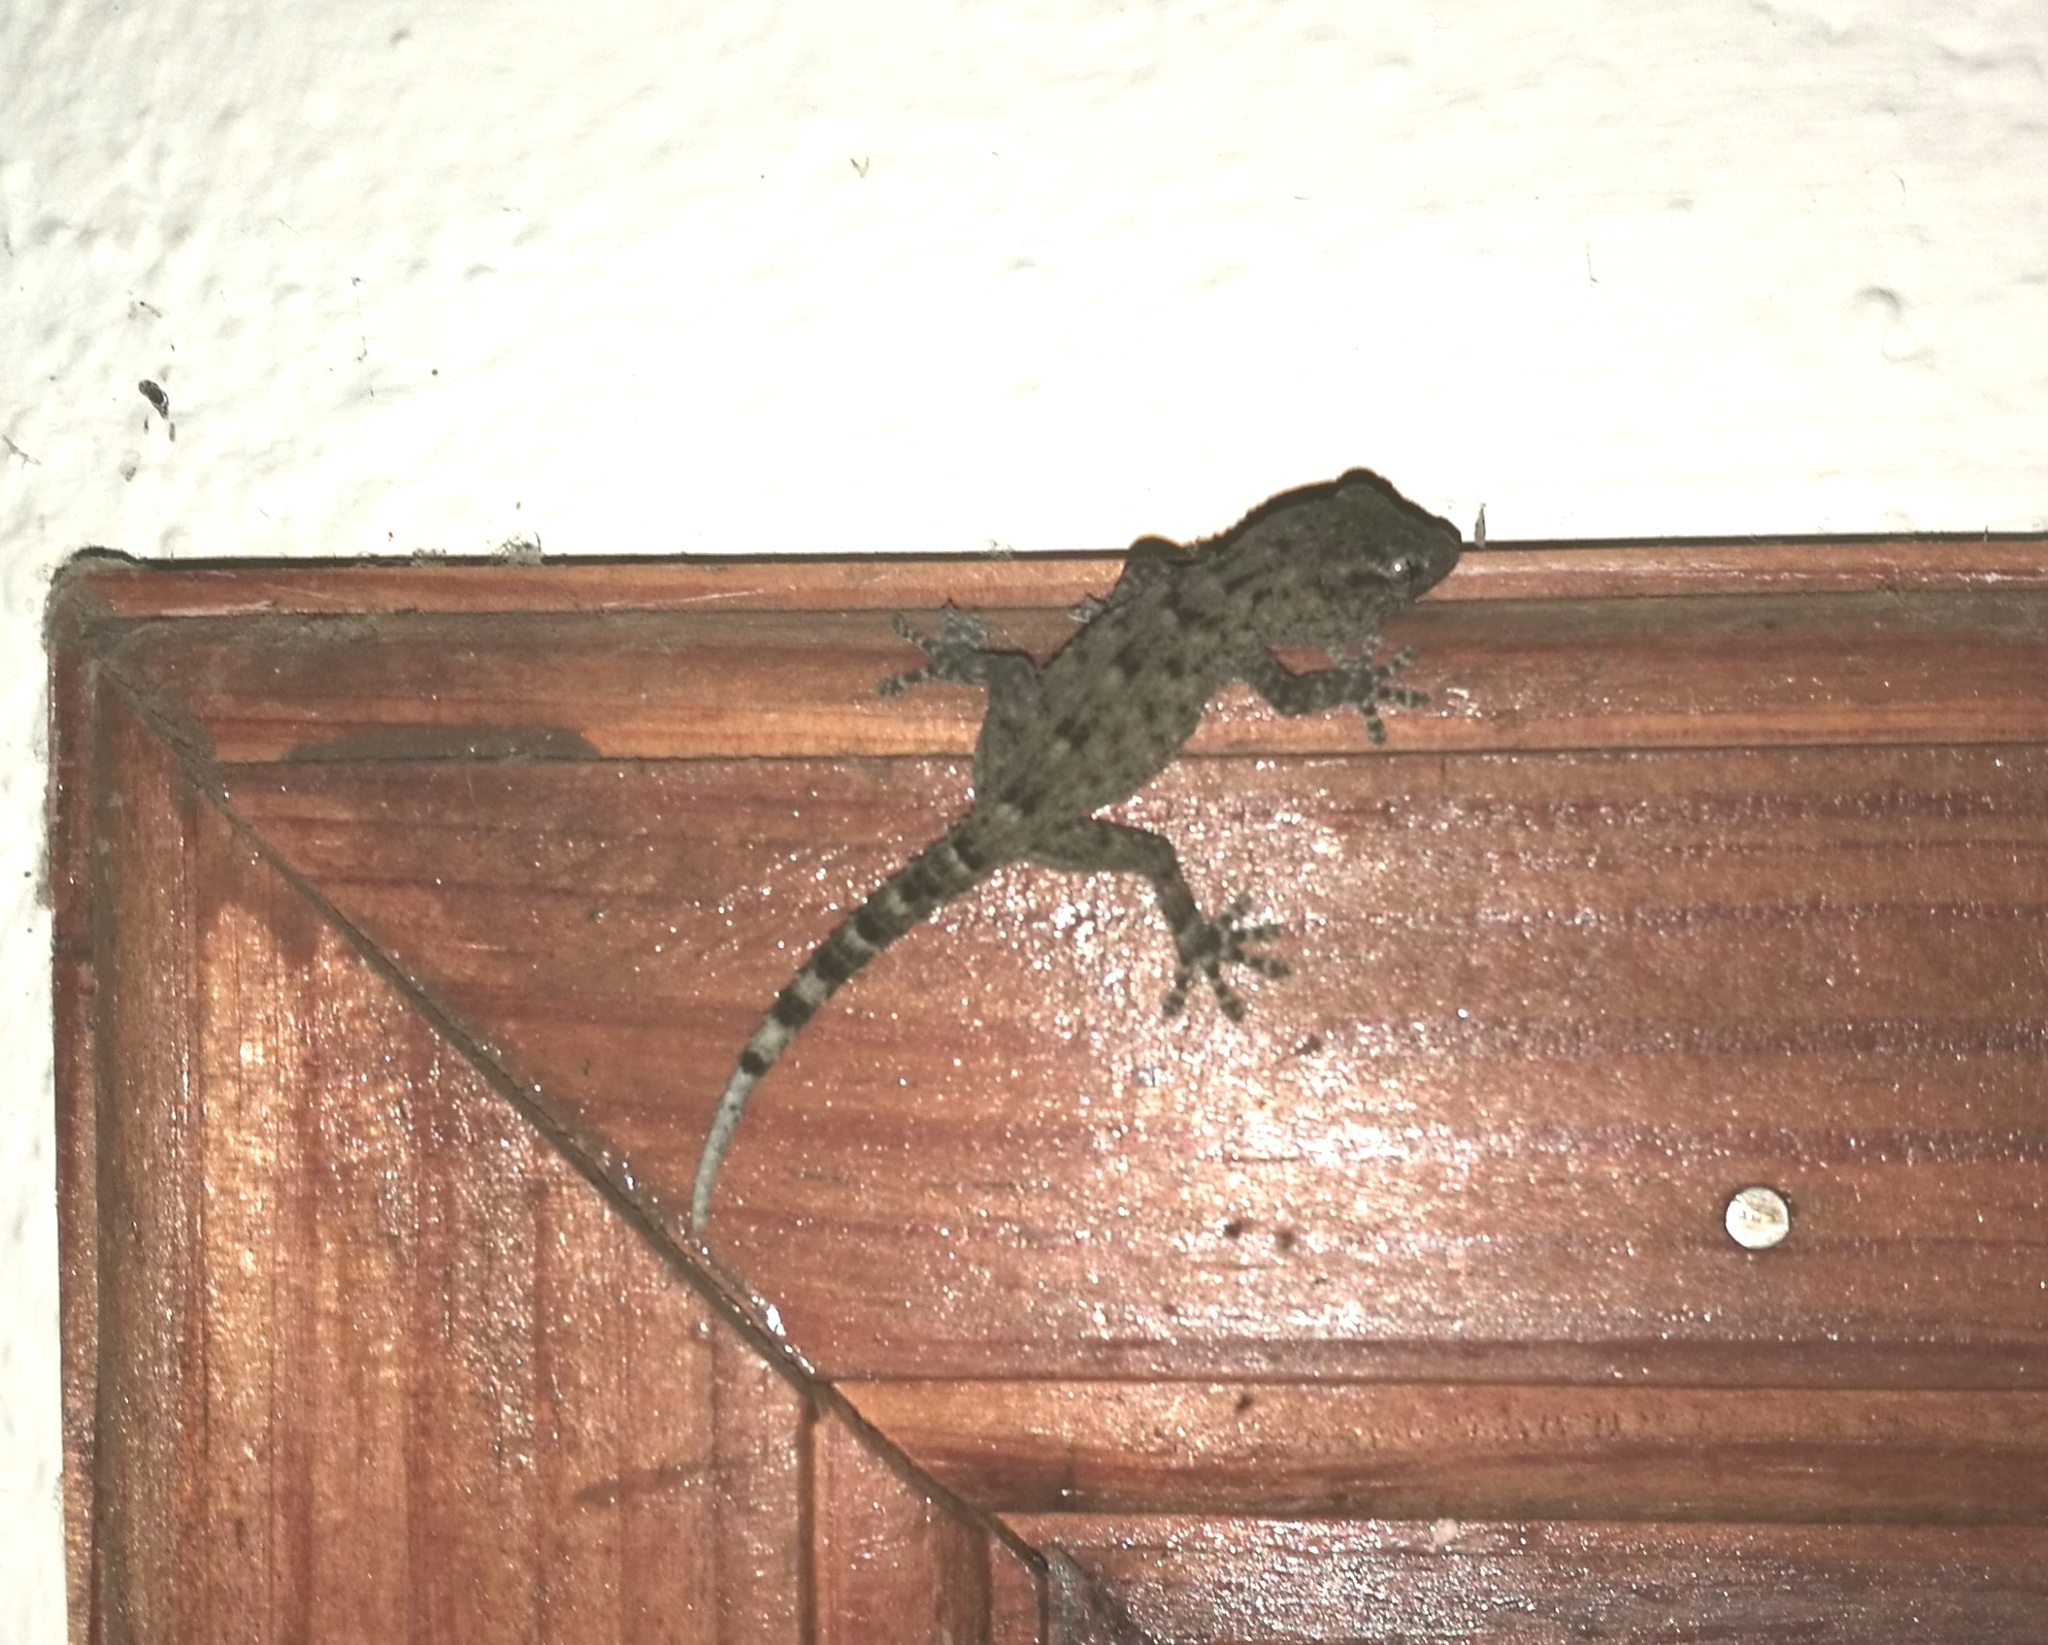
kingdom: Animalia
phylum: Chordata
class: Squamata
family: Phyllodactylidae
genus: Tarentola
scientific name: Tarentola delalandii
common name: Tenerife wall gecko
